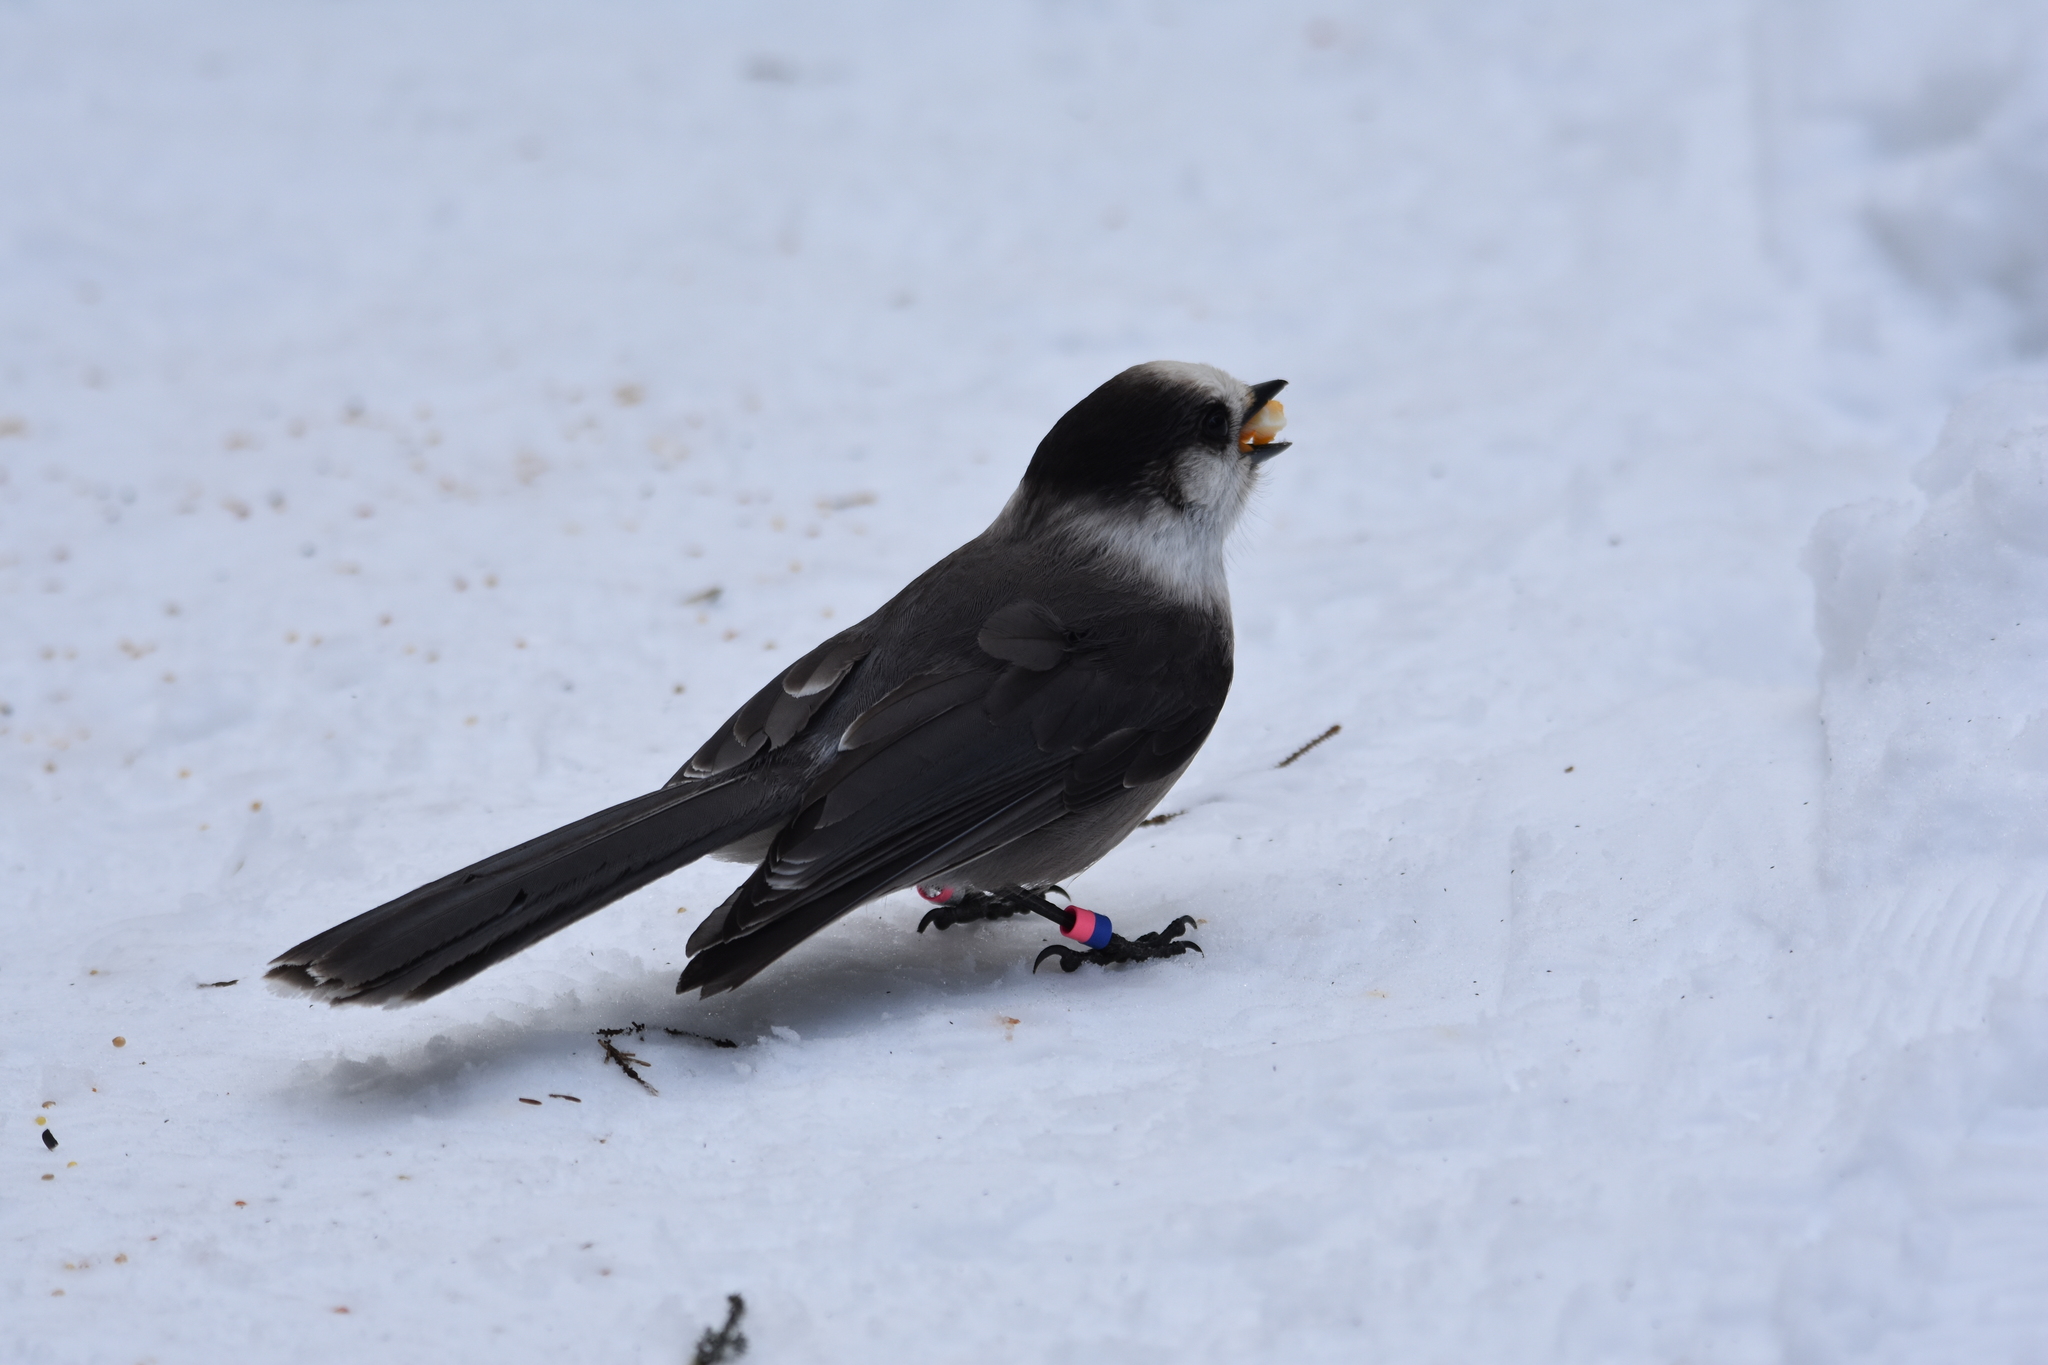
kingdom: Animalia
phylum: Chordata
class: Aves
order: Passeriformes
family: Corvidae
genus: Perisoreus
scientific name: Perisoreus canadensis
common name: Gray jay
